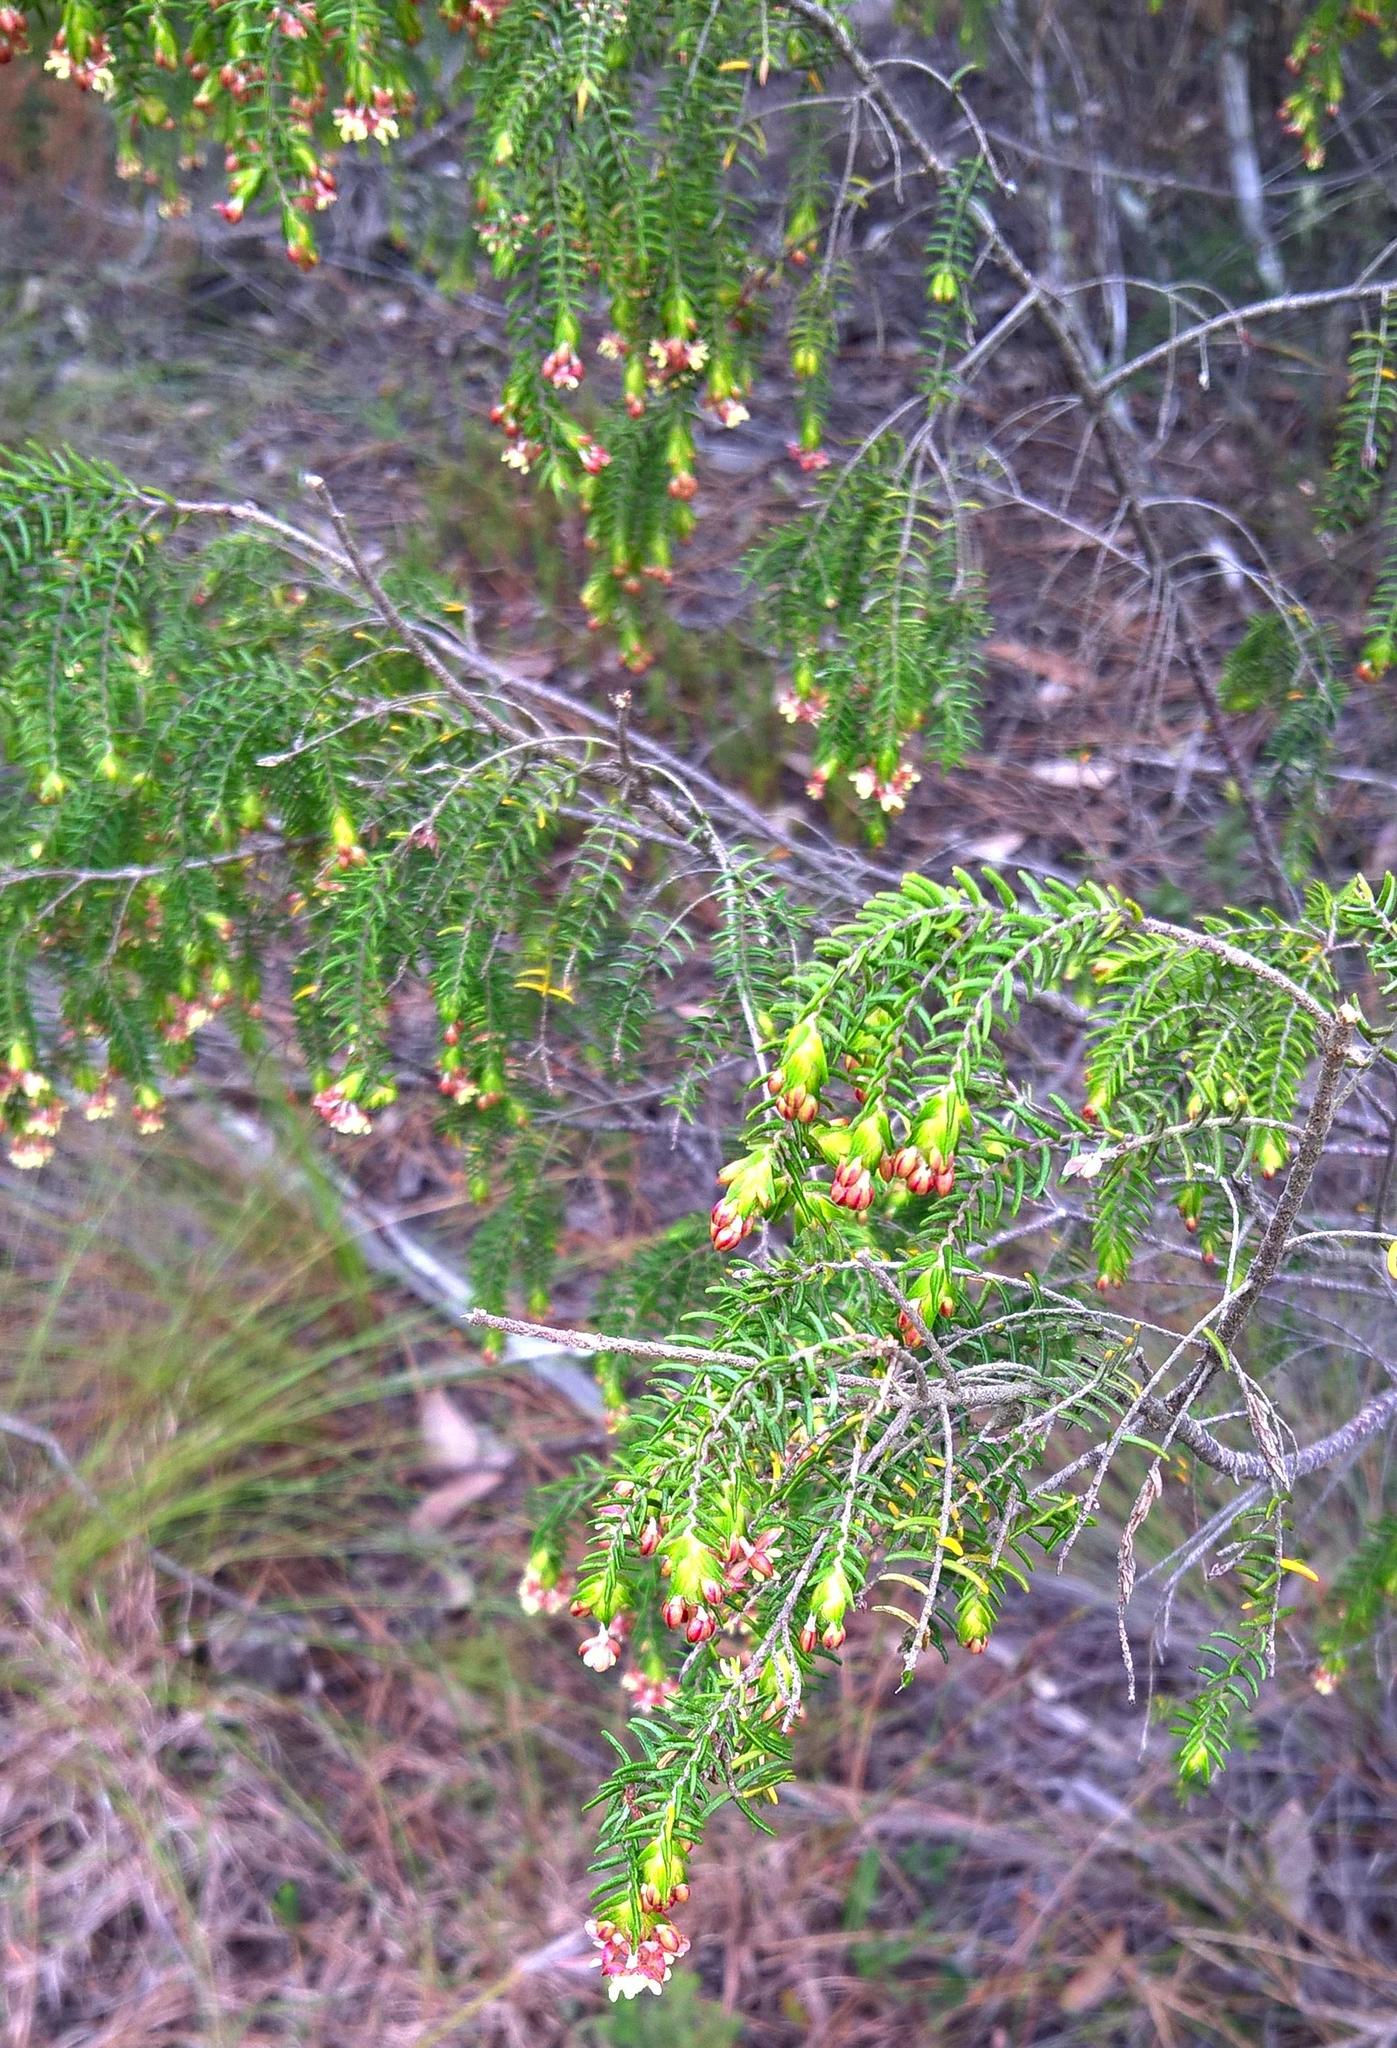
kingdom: Plantae
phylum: Tracheophyta
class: Magnoliopsida
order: Malvales
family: Thymelaeaceae
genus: Passerina
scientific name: Passerina falcifolia
